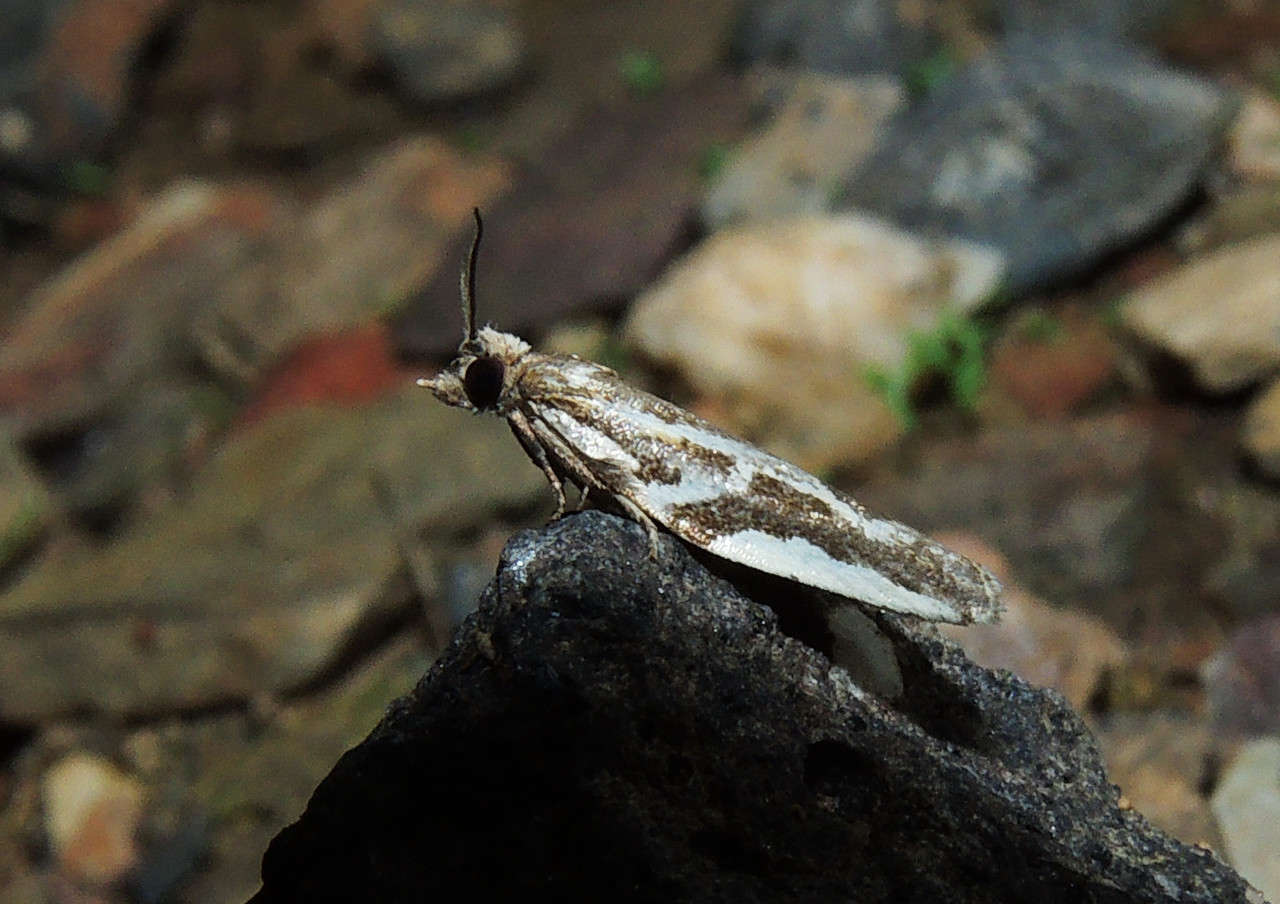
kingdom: Animalia
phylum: Arthropoda
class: Insecta
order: Lepidoptera
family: Tortricidae
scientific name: Tortricidae
